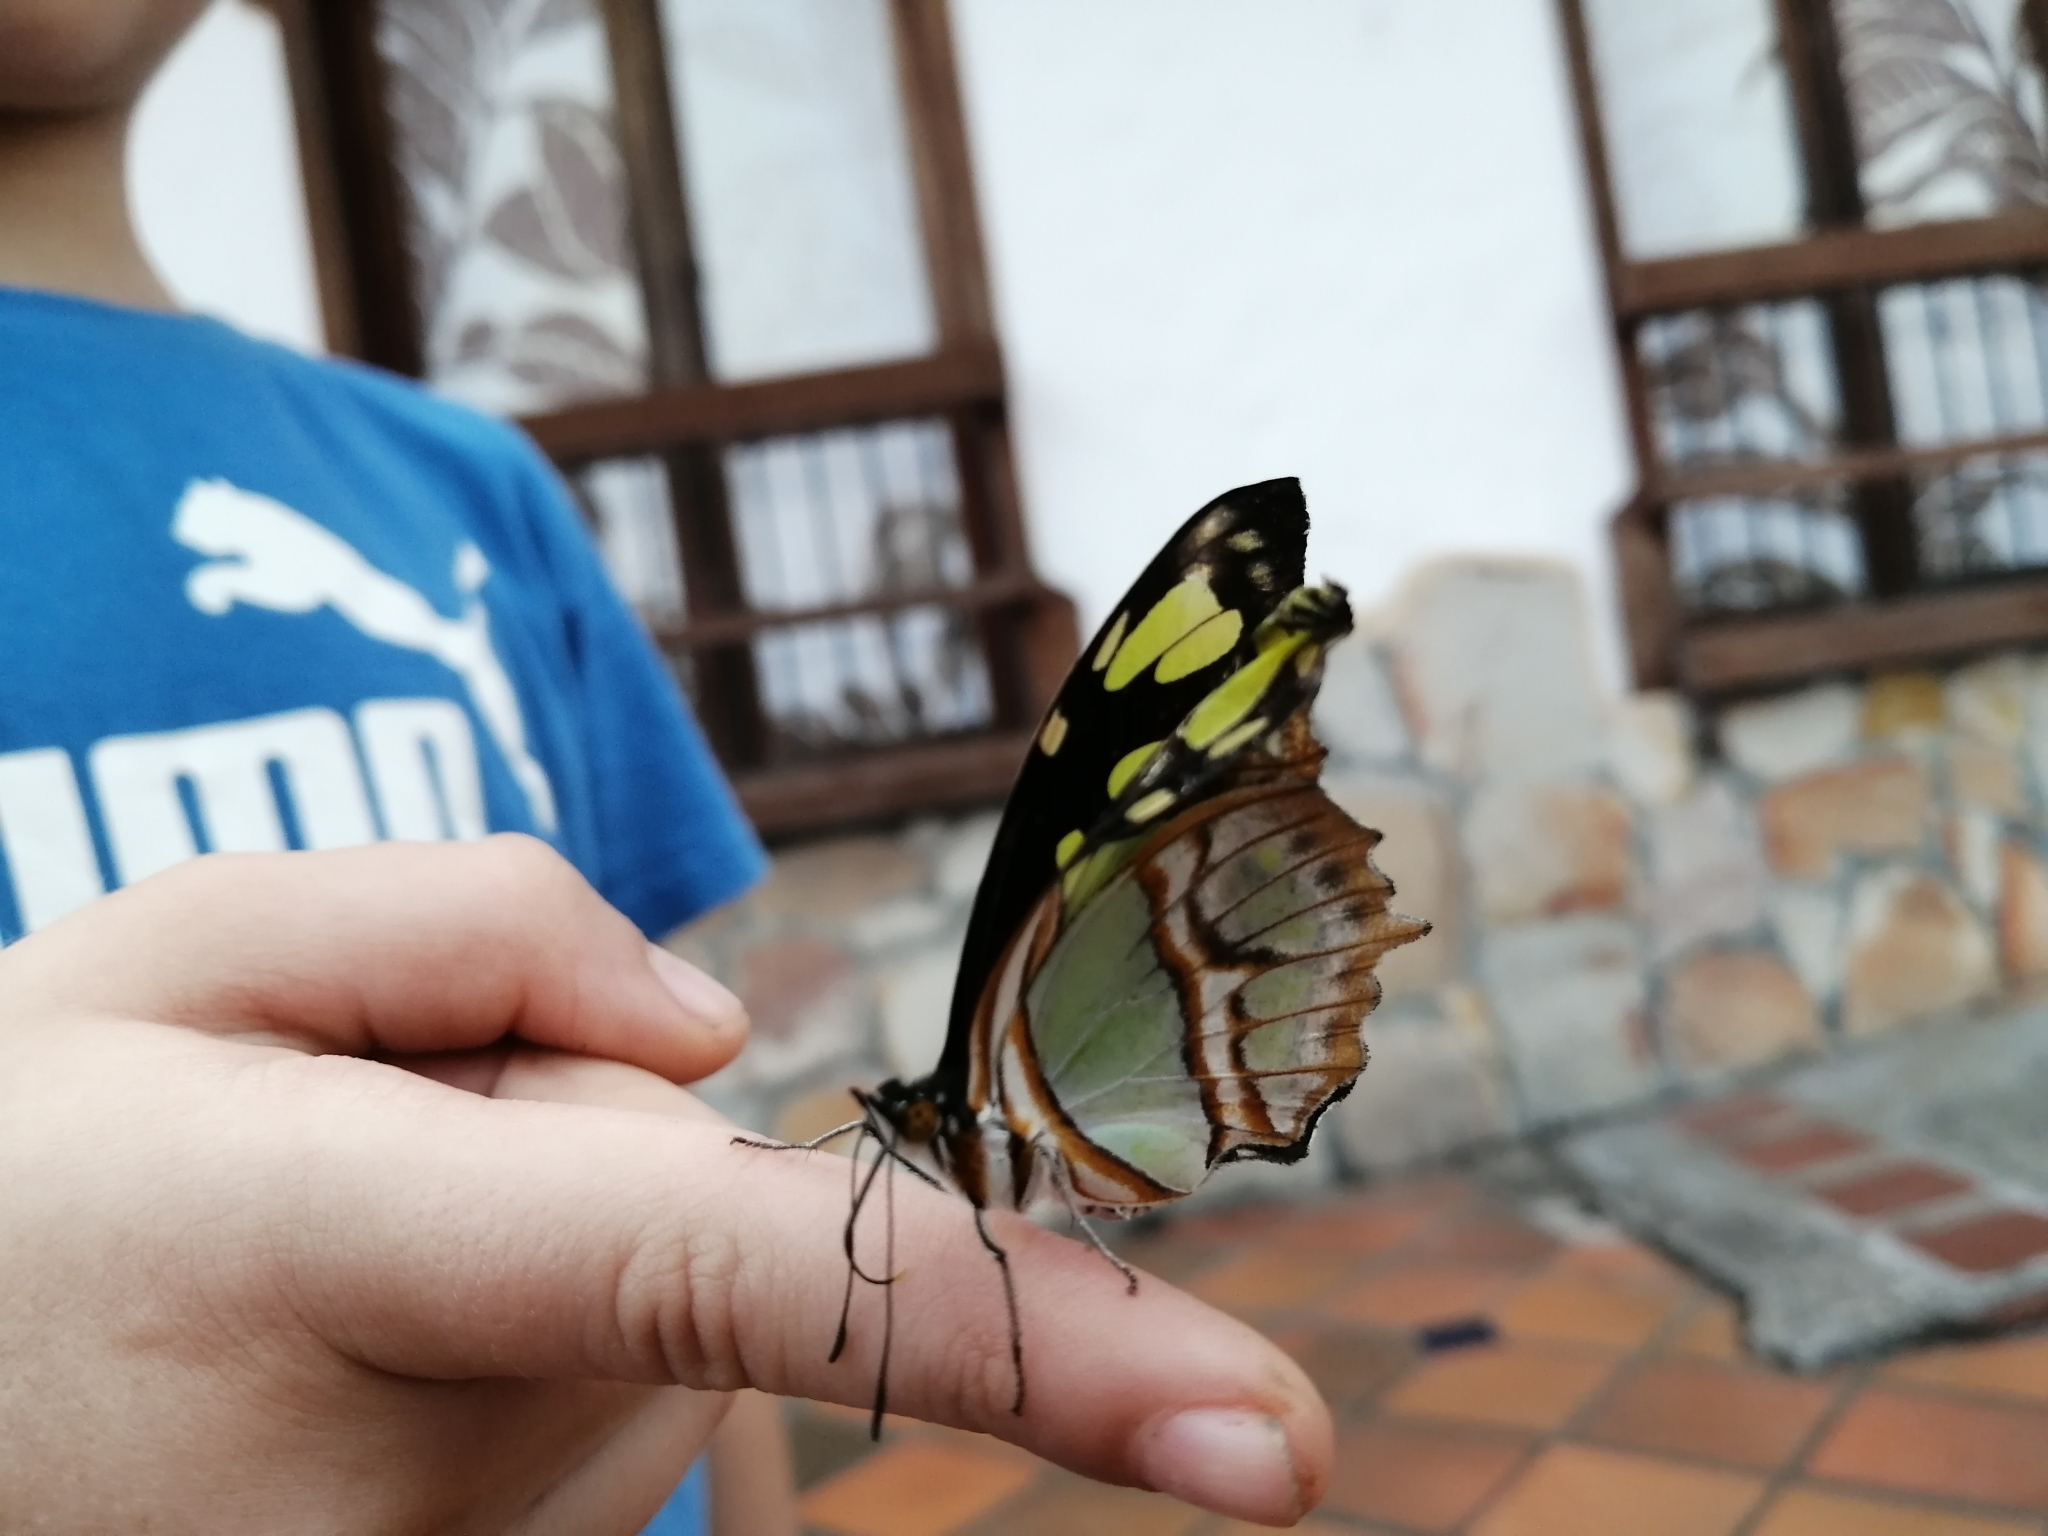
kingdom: Animalia
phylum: Arthropoda
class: Insecta
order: Lepidoptera
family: Nymphalidae
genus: Siproeta
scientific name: Siproeta stelenes
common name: Malachite
